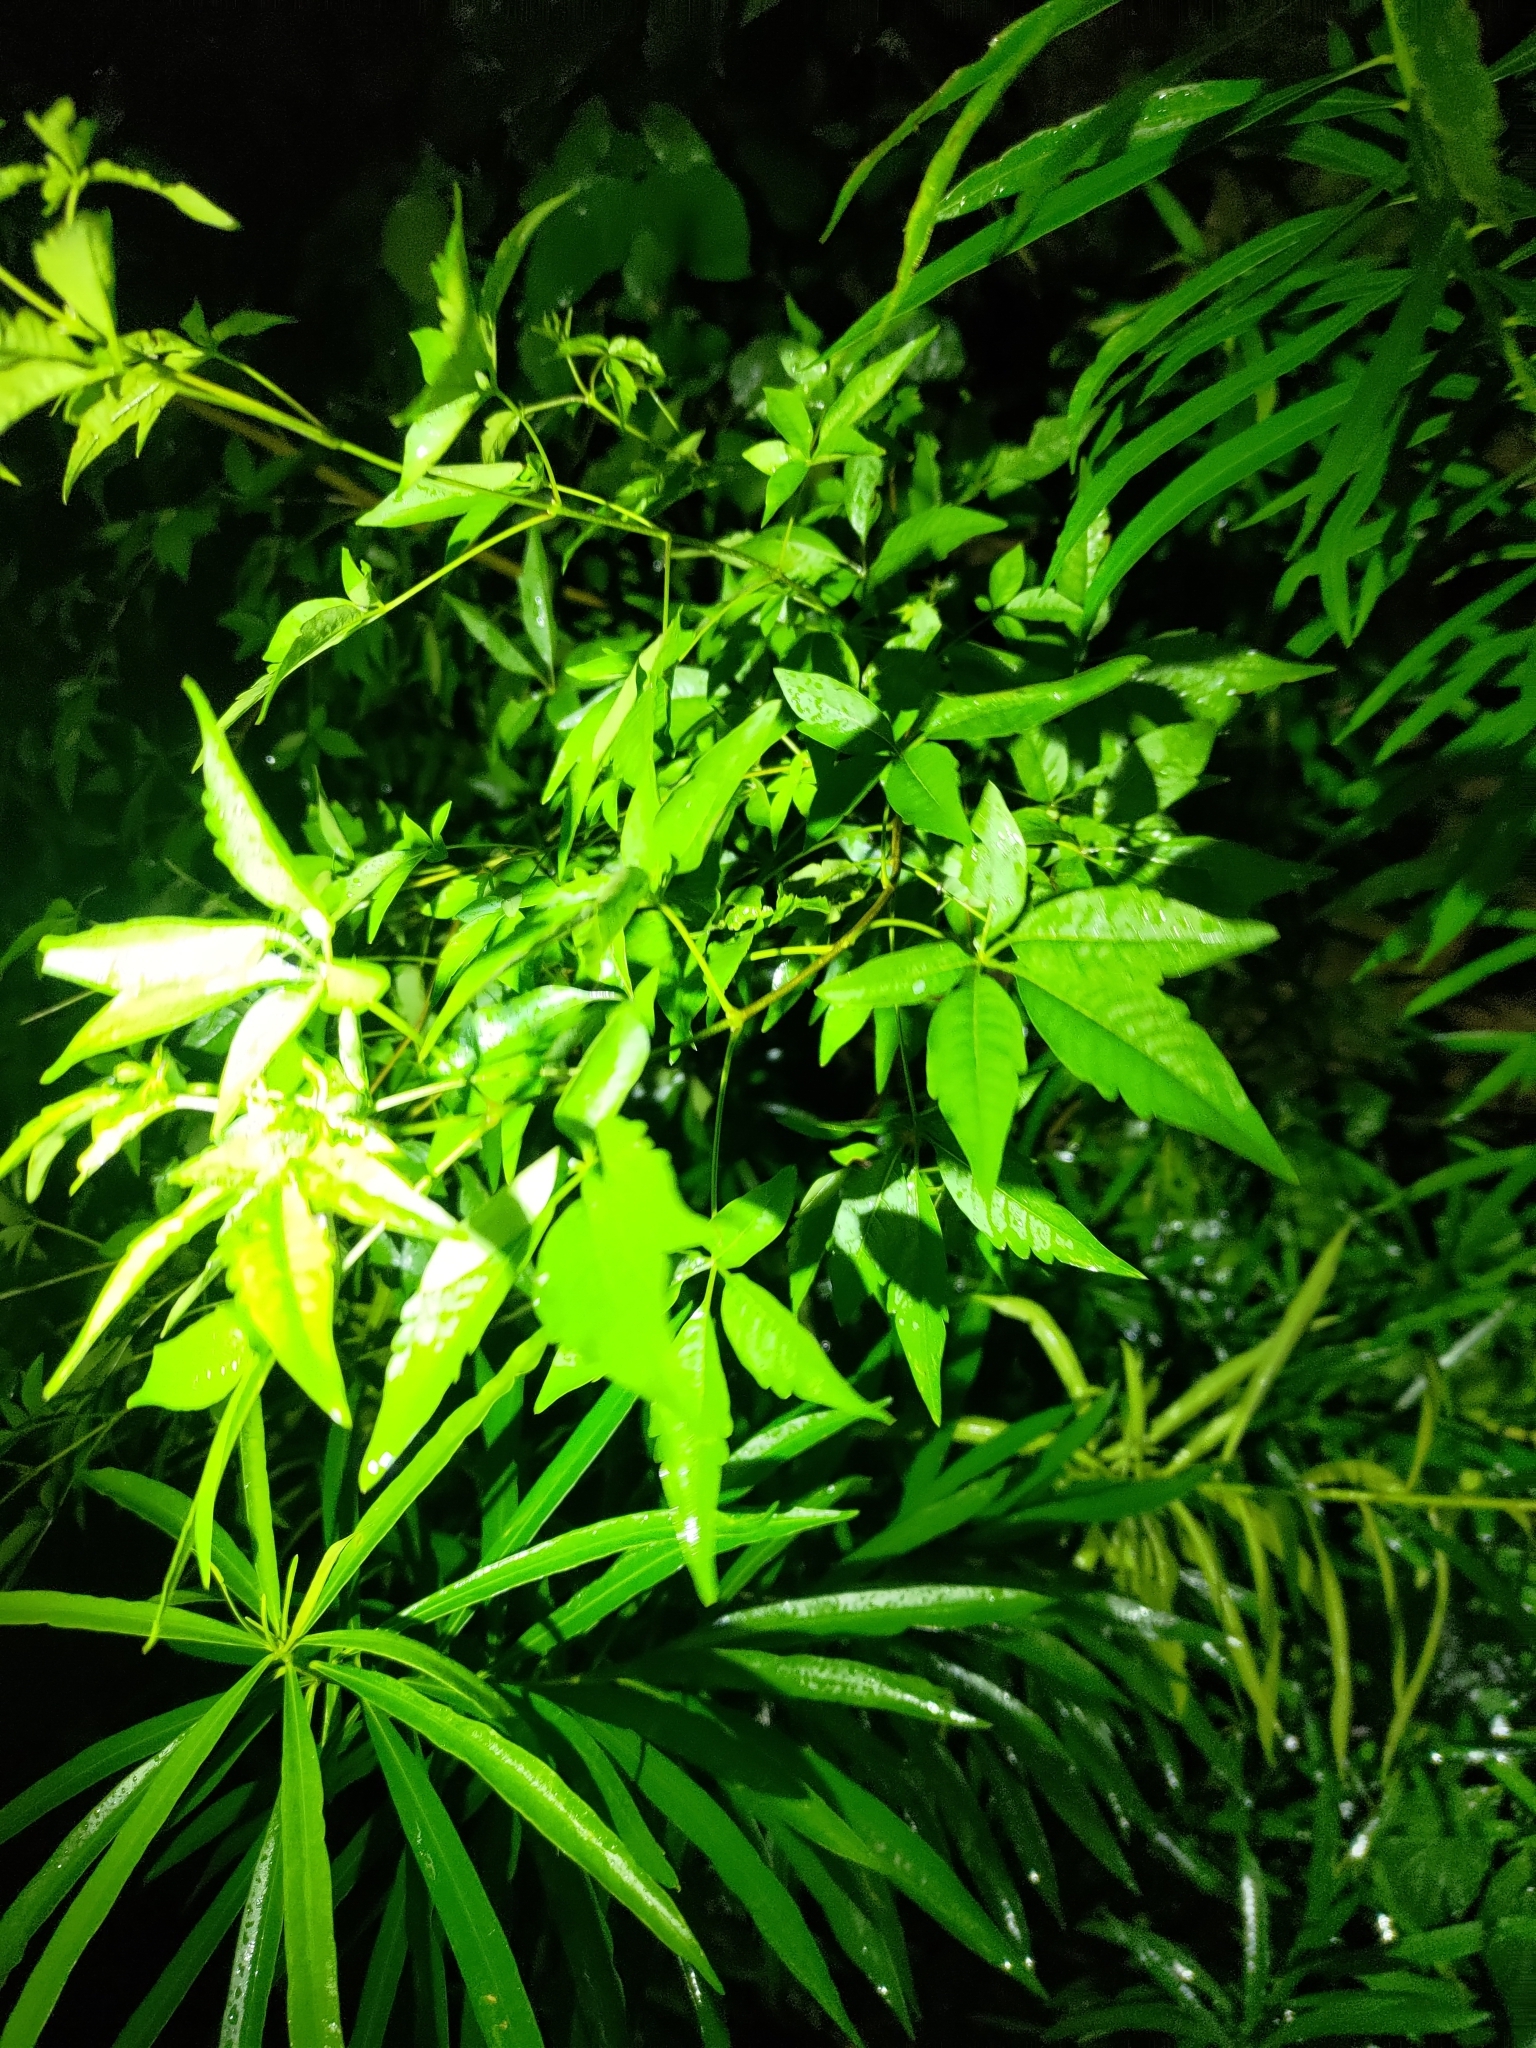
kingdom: Plantae
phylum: Tracheophyta
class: Magnoliopsida
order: Lamiales
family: Lamiaceae
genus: Vitex
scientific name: Vitex negundo
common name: Chinese chastetree
